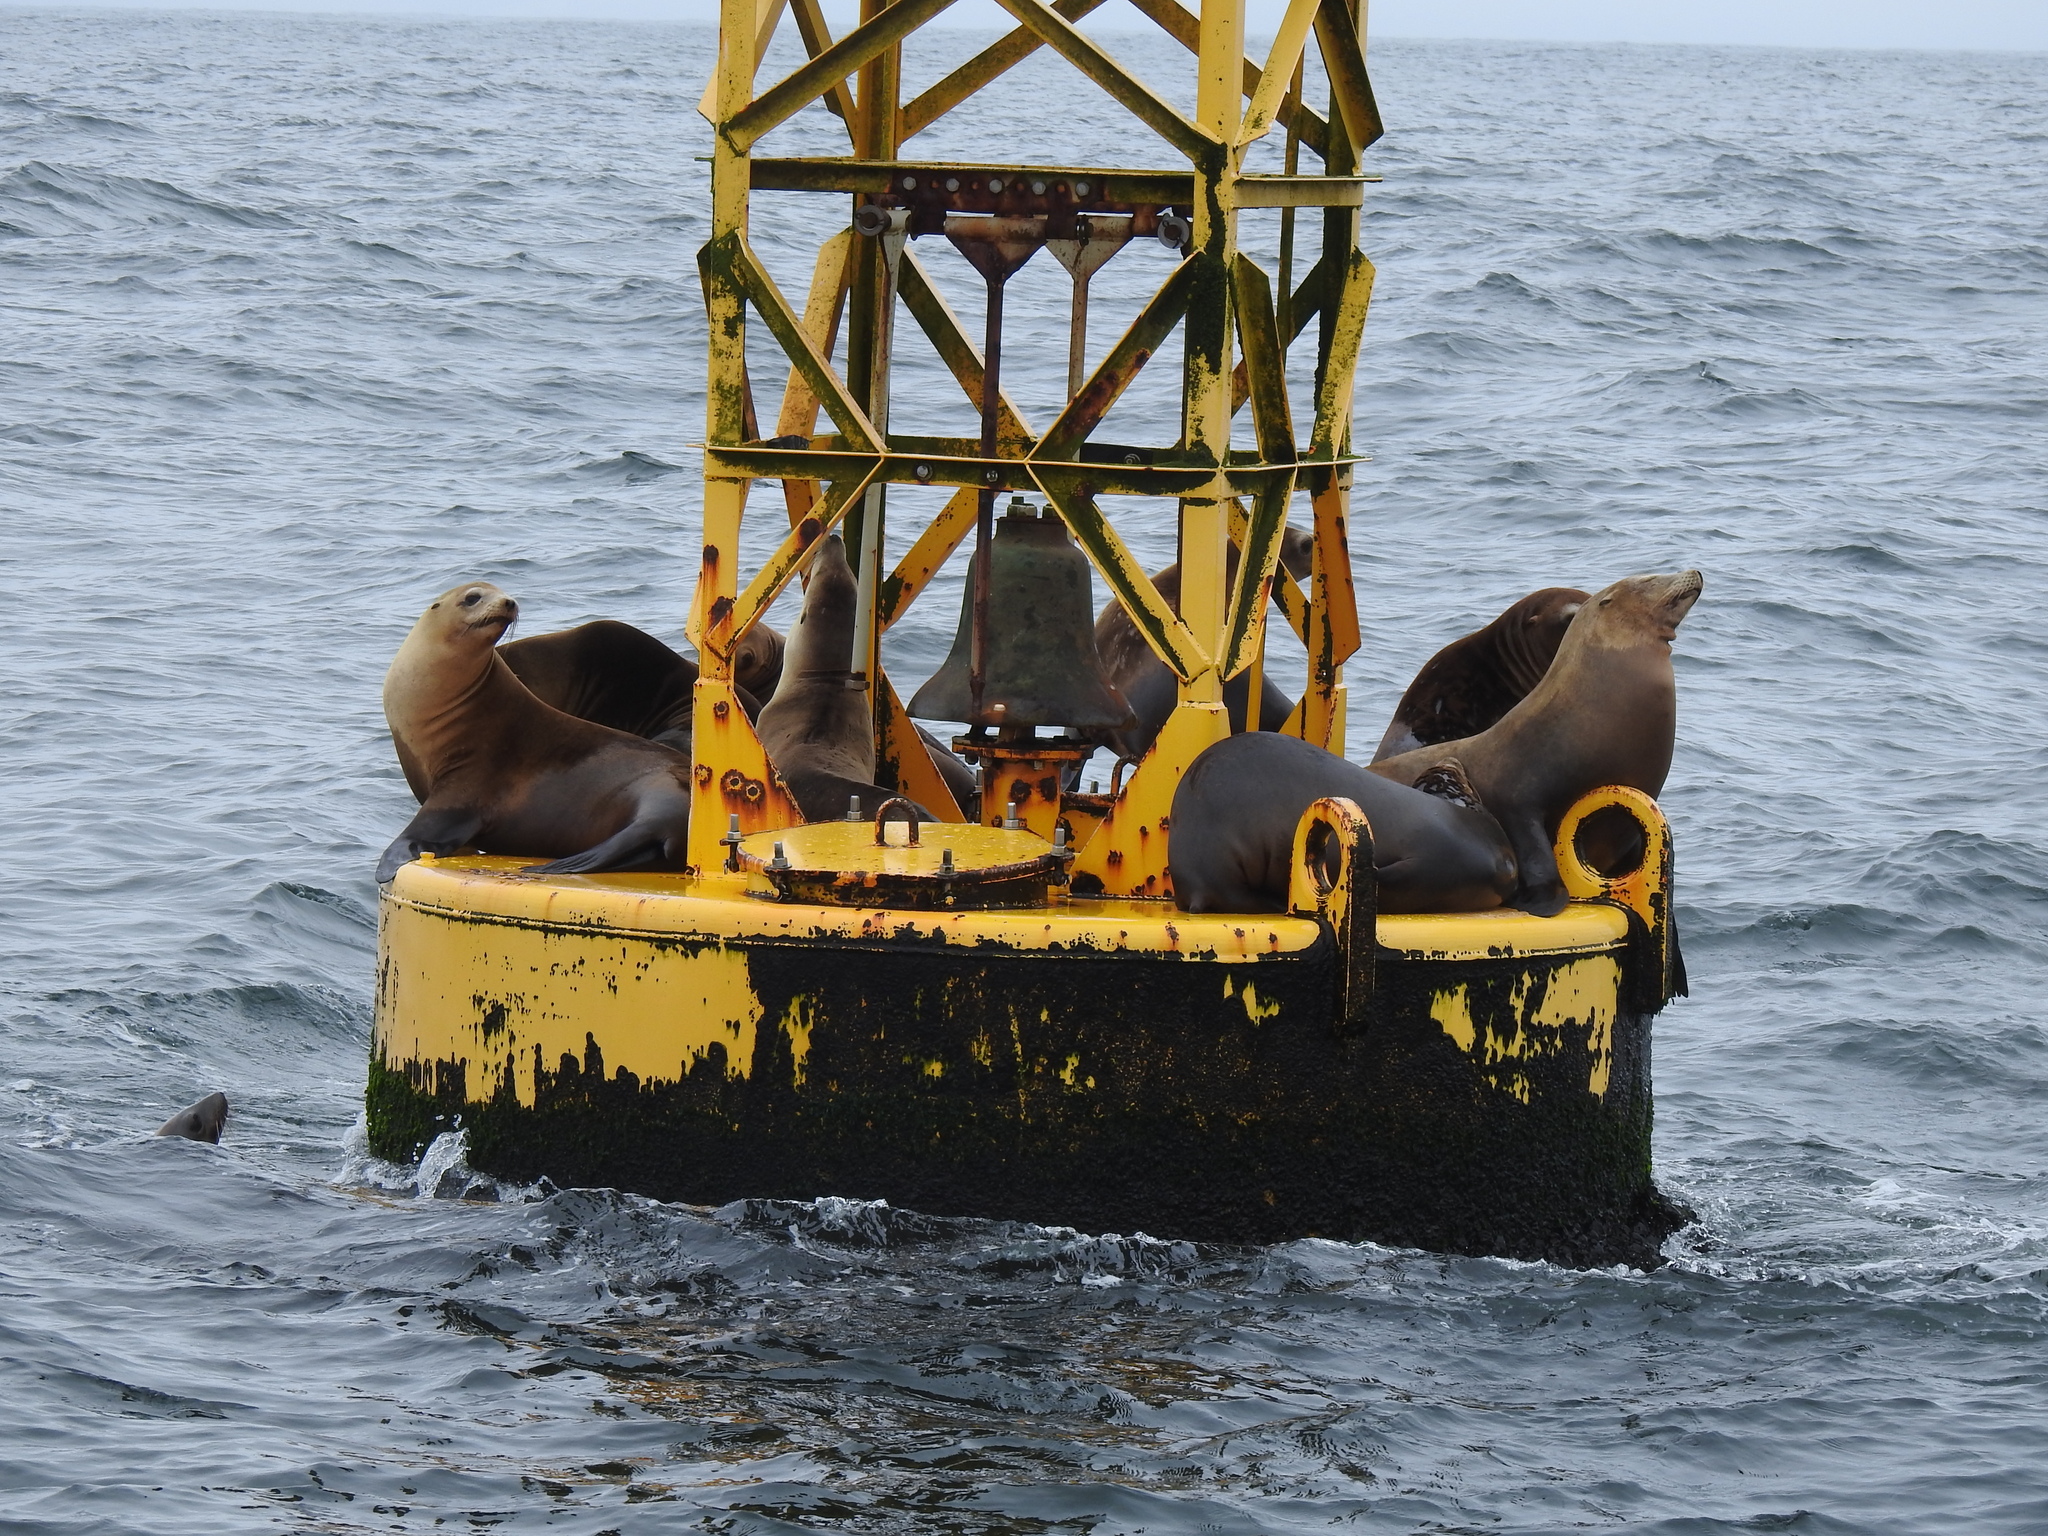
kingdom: Animalia
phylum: Chordata
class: Mammalia
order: Carnivora
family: Otariidae
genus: Zalophus
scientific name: Zalophus californianus
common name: California sea lion
